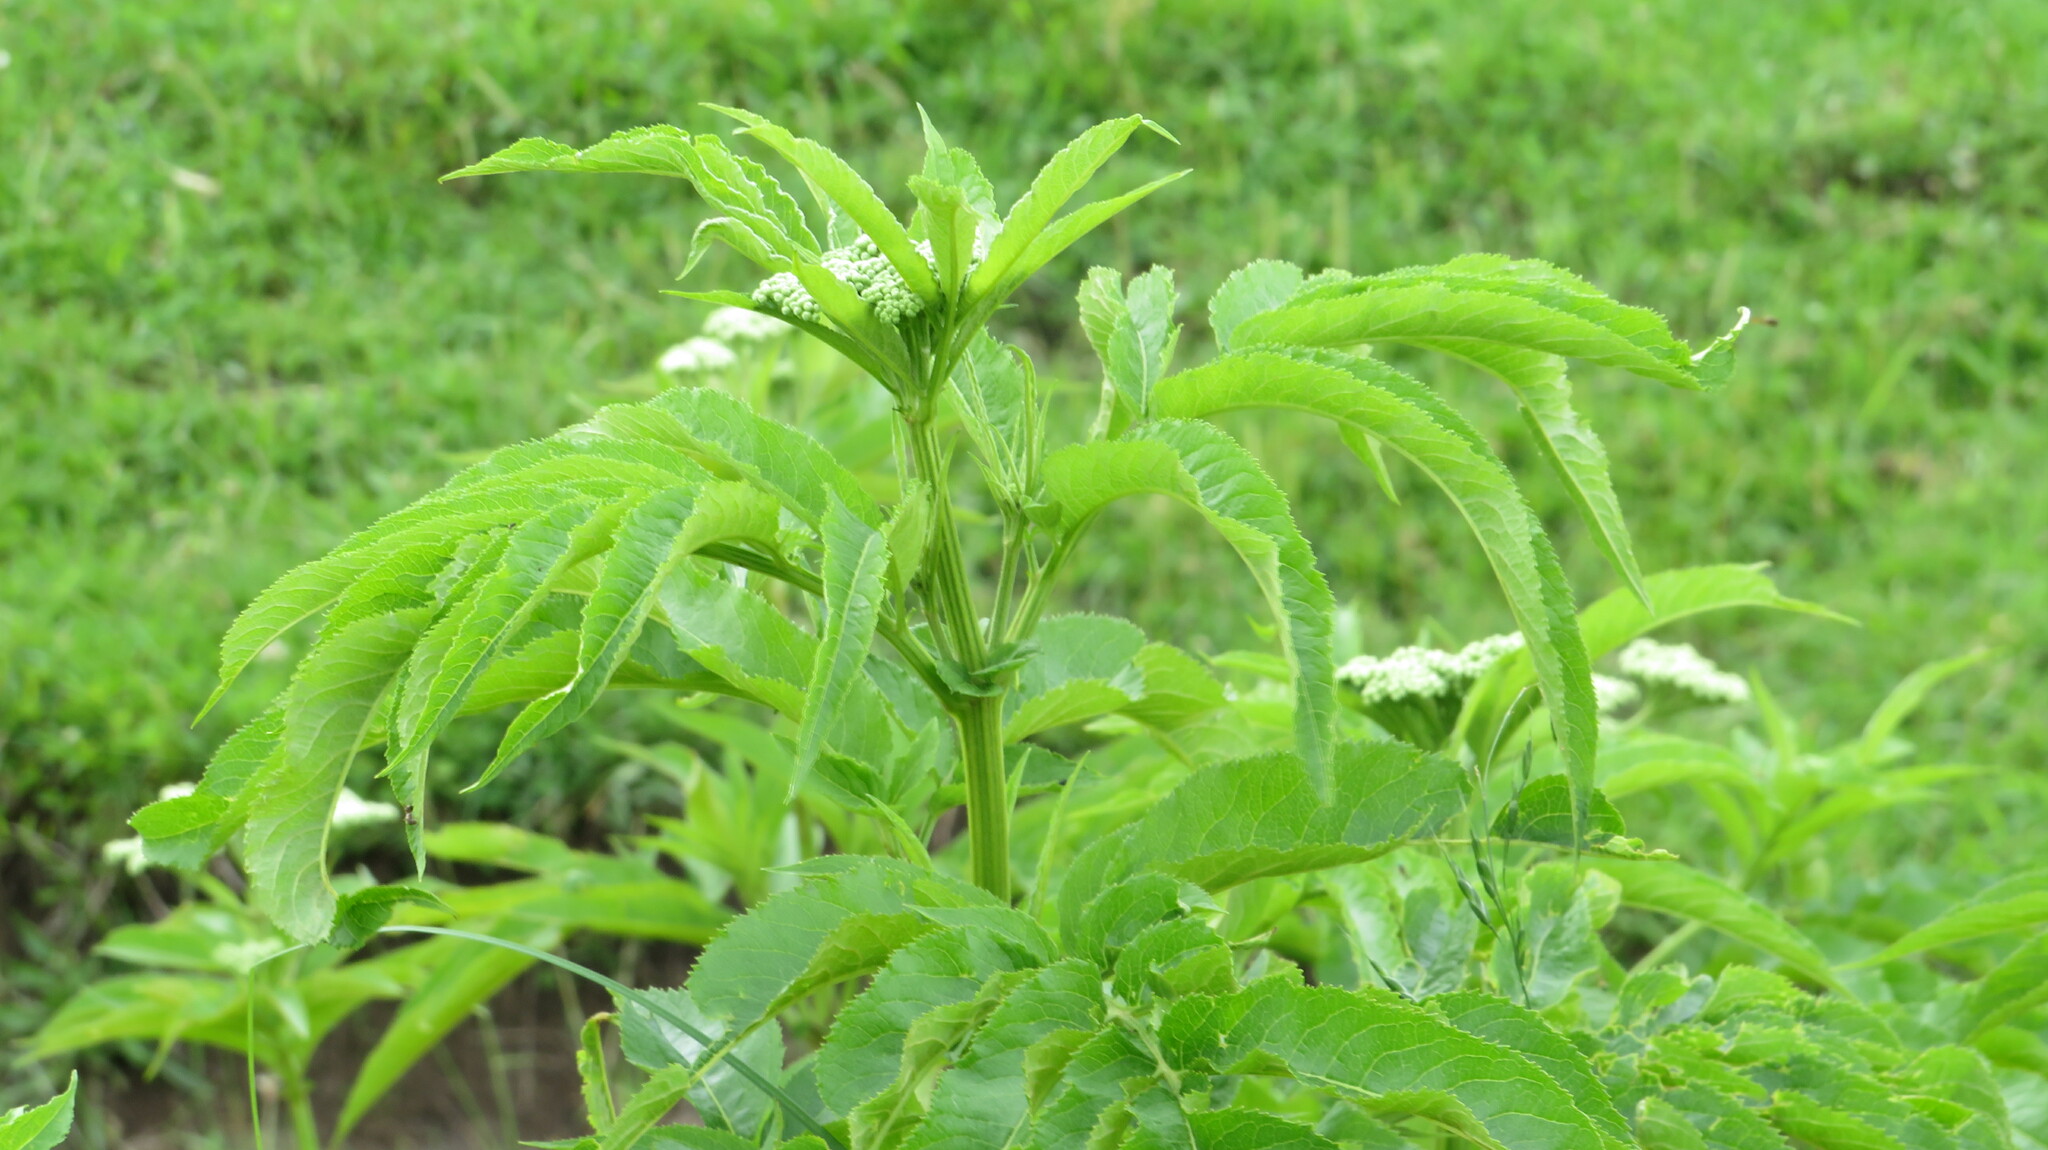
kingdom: Plantae
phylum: Tracheophyta
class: Magnoliopsida
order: Dipsacales
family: Viburnaceae
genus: Sambucus
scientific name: Sambucus ebulus
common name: Dwarf elder
